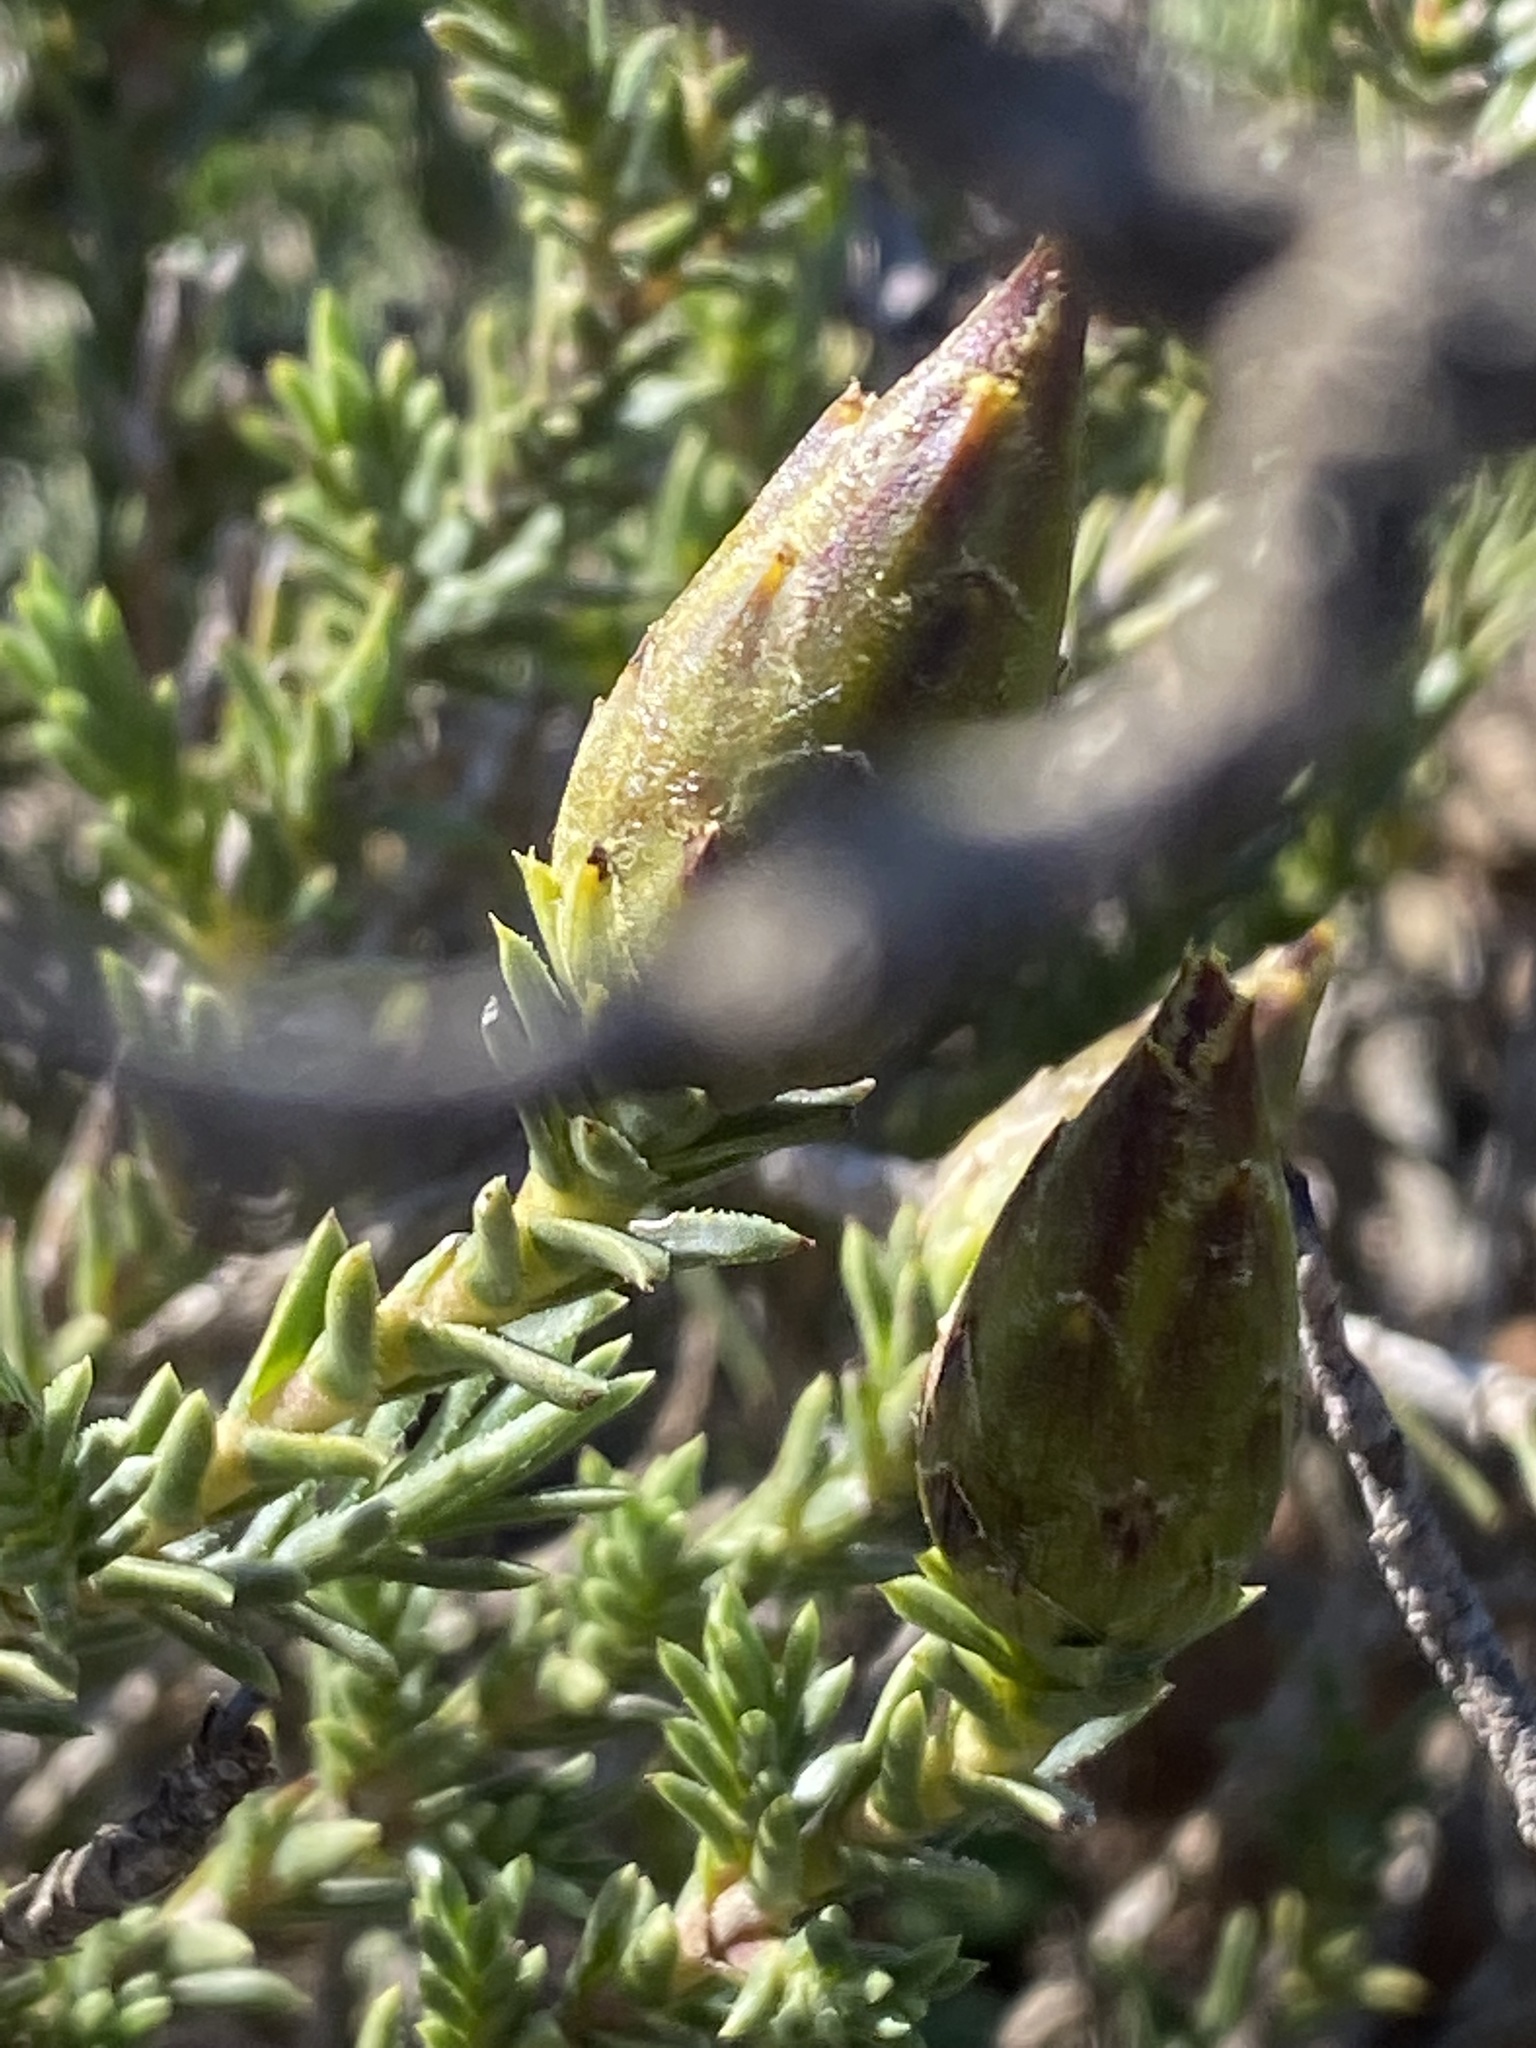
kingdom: Plantae
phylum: Tracheophyta
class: Magnoliopsida
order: Asterales
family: Asteraceae
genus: Pteronia
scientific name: Pteronia elongata
